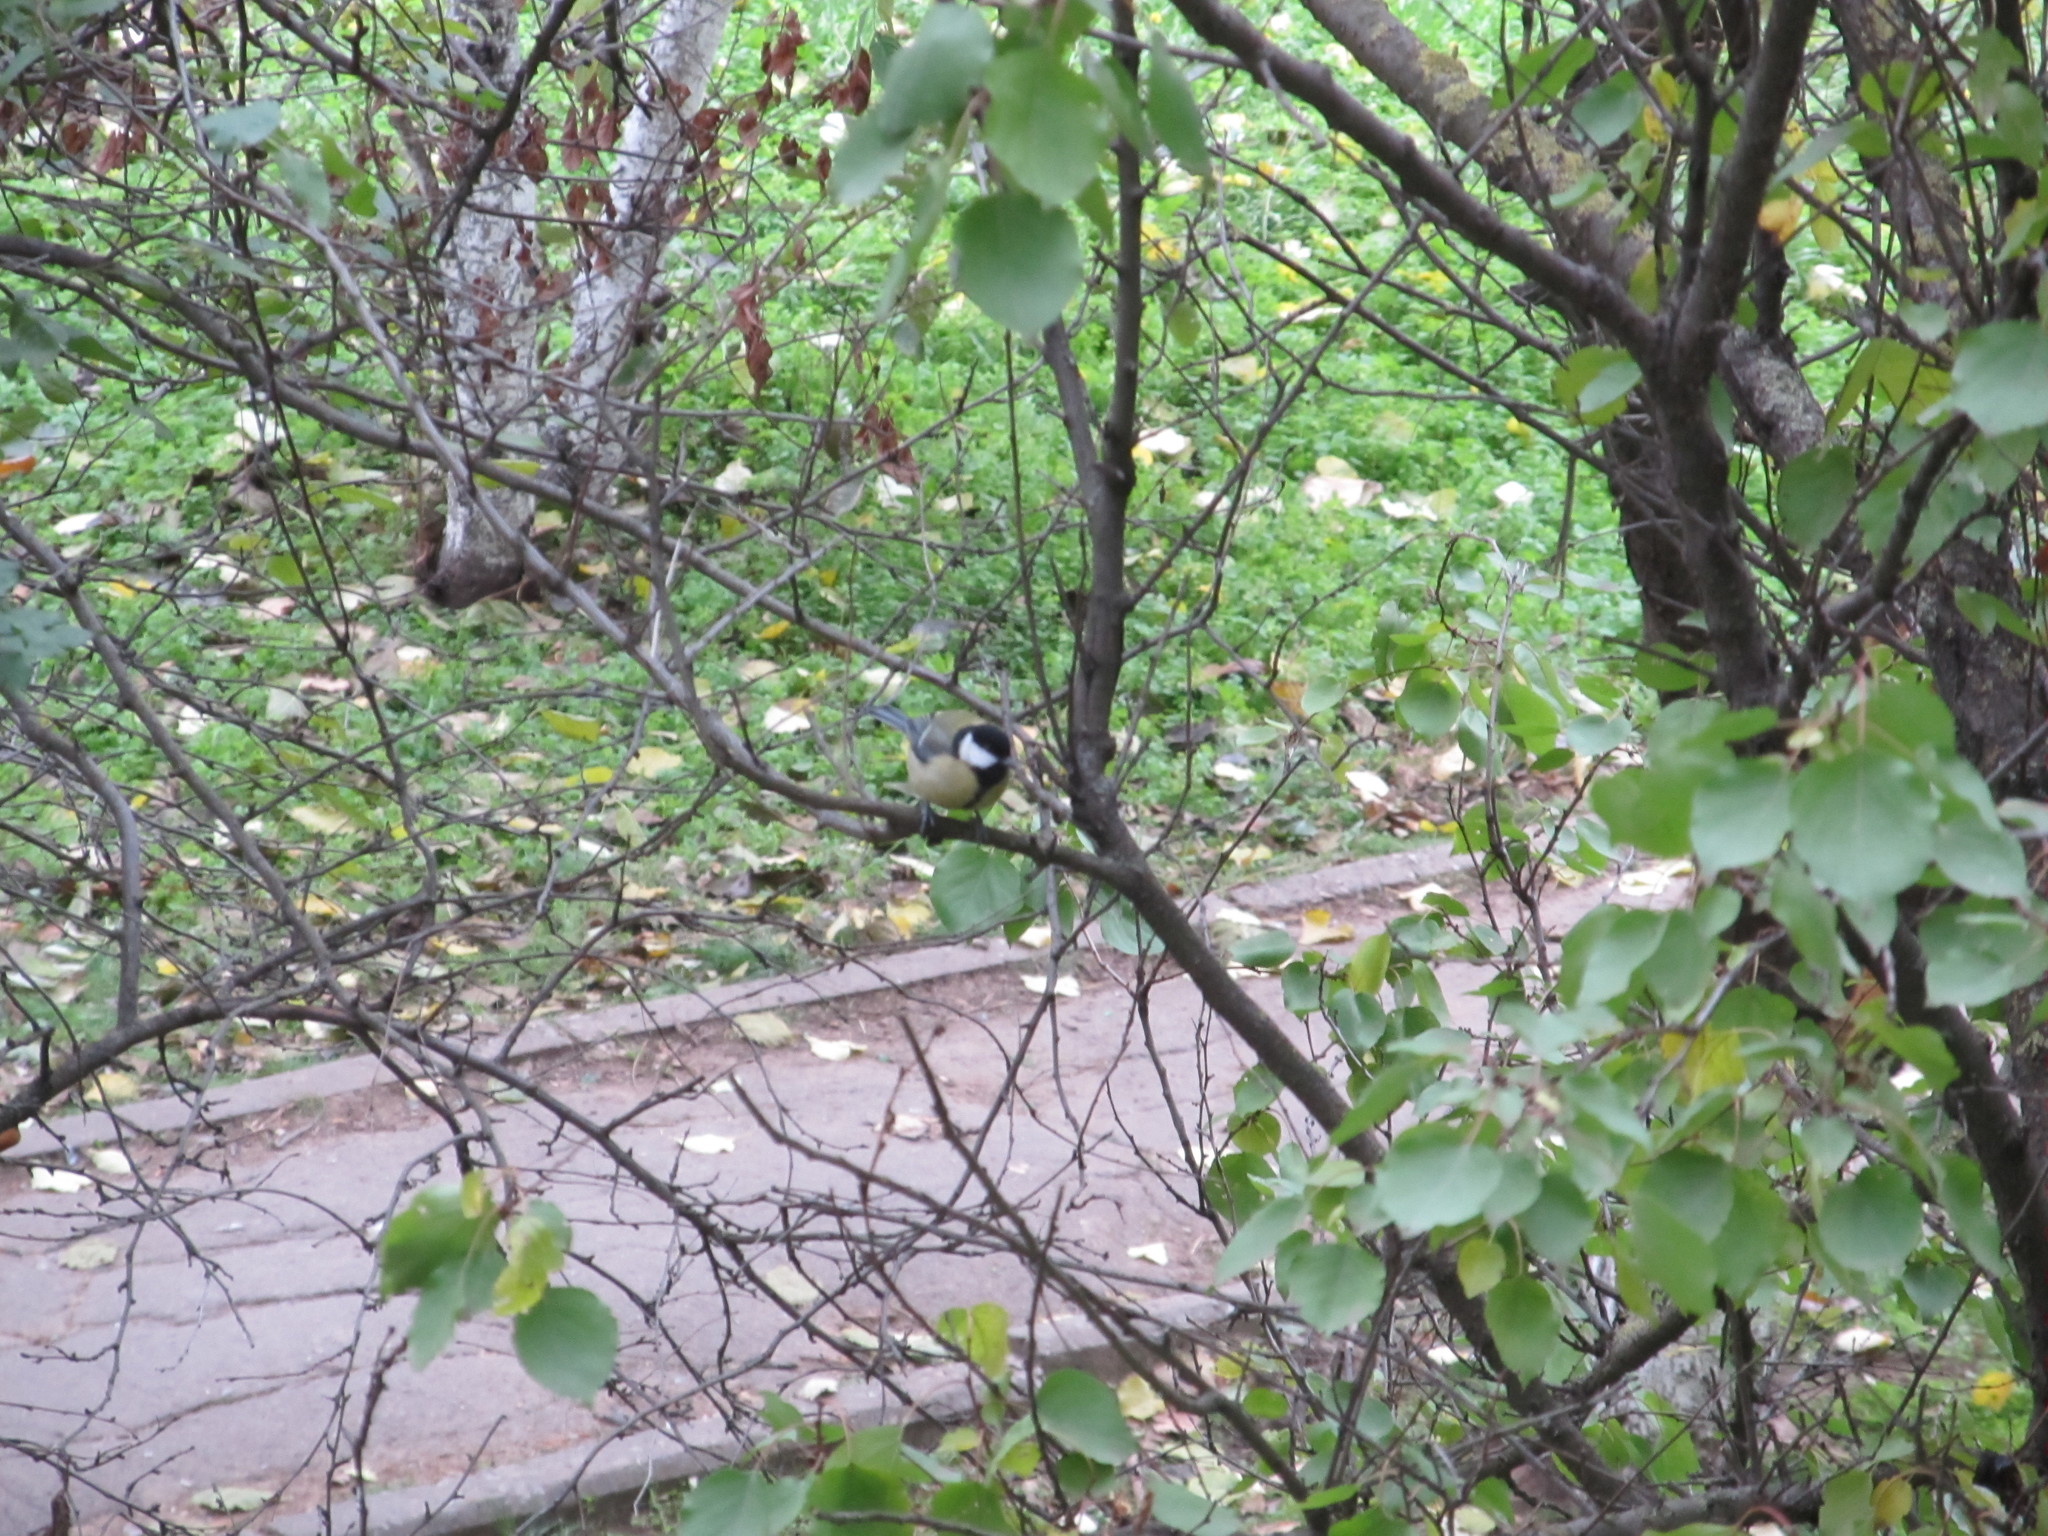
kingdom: Animalia
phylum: Chordata
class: Aves
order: Passeriformes
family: Paridae
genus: Parus
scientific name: Parus major
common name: Great tit
